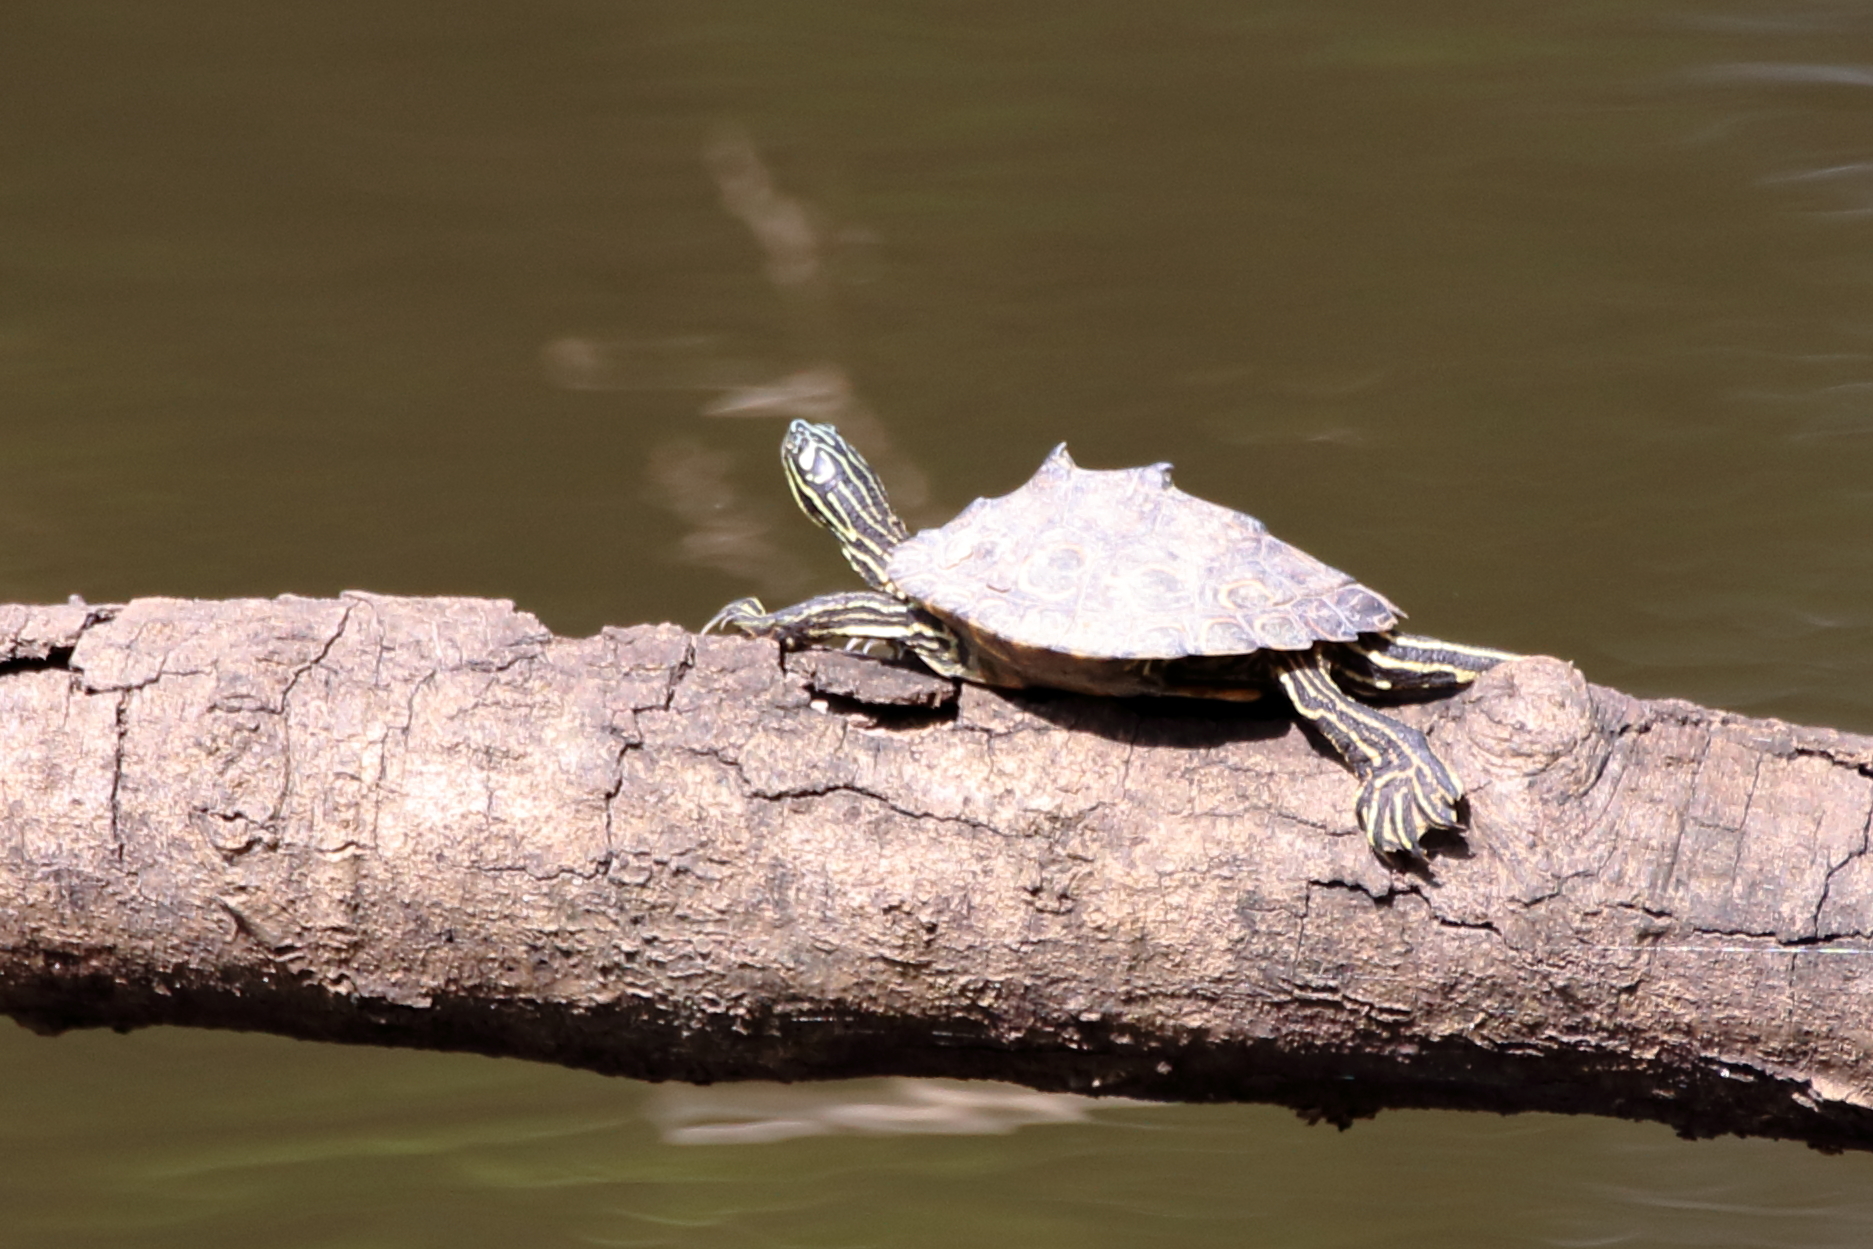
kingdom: Animalia
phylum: Chordata
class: Testudines
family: Emydidae
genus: Graptemys
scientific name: Graptemys oculifera
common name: Ringed map turtle
